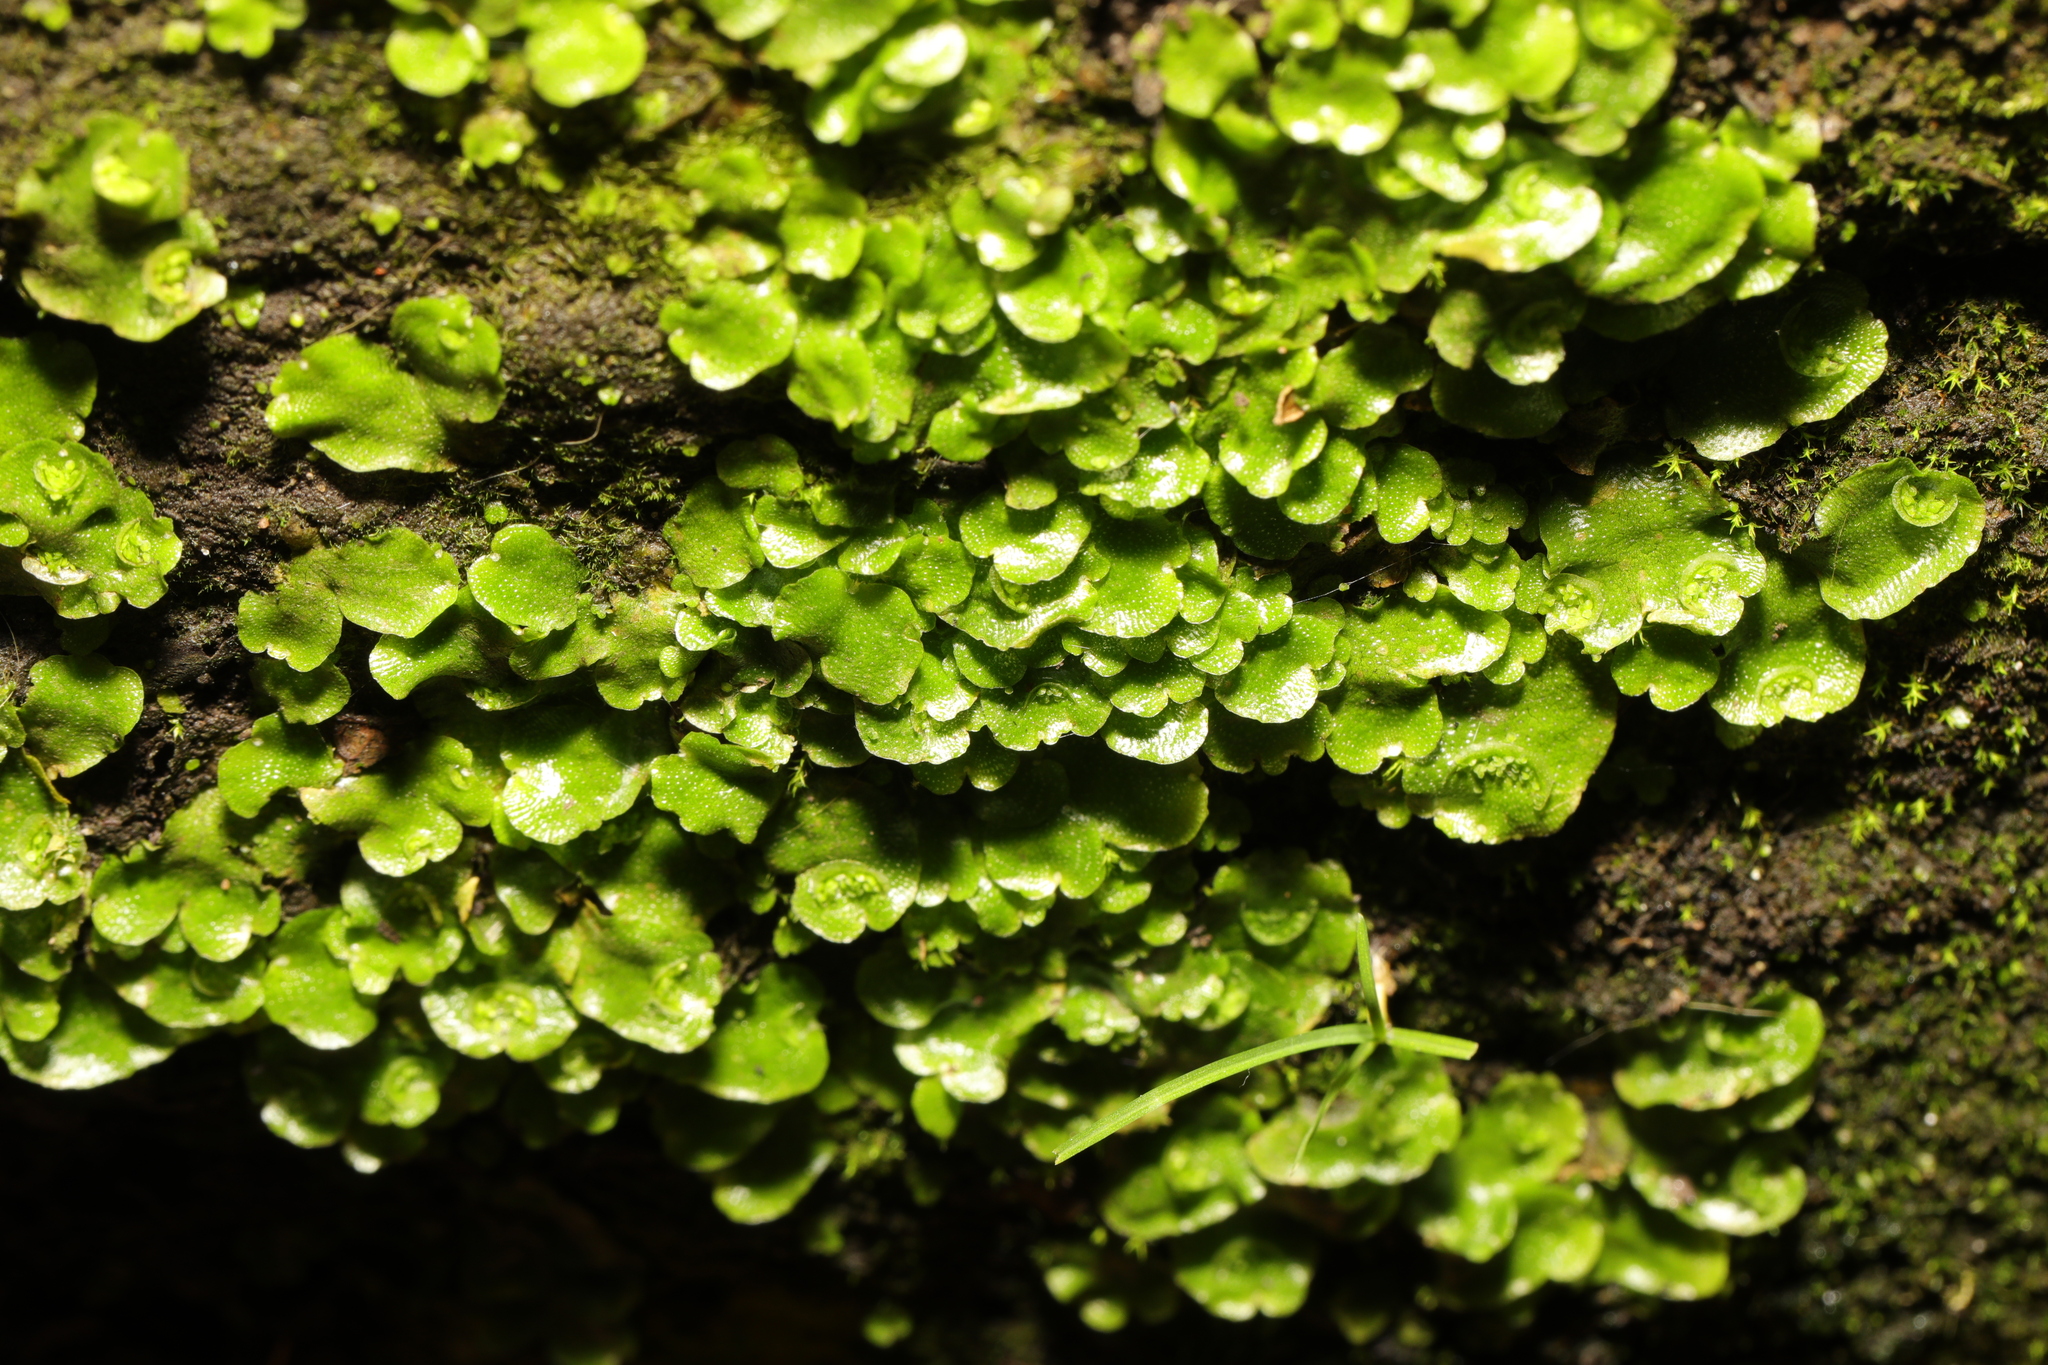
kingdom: Plantae
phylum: Marchantiophyta
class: Marchantiopsida
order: Lunulariales
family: Lunulariaceae
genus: Lunularia
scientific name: Lunularia cruciata
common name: Crescent-cup liverwort
